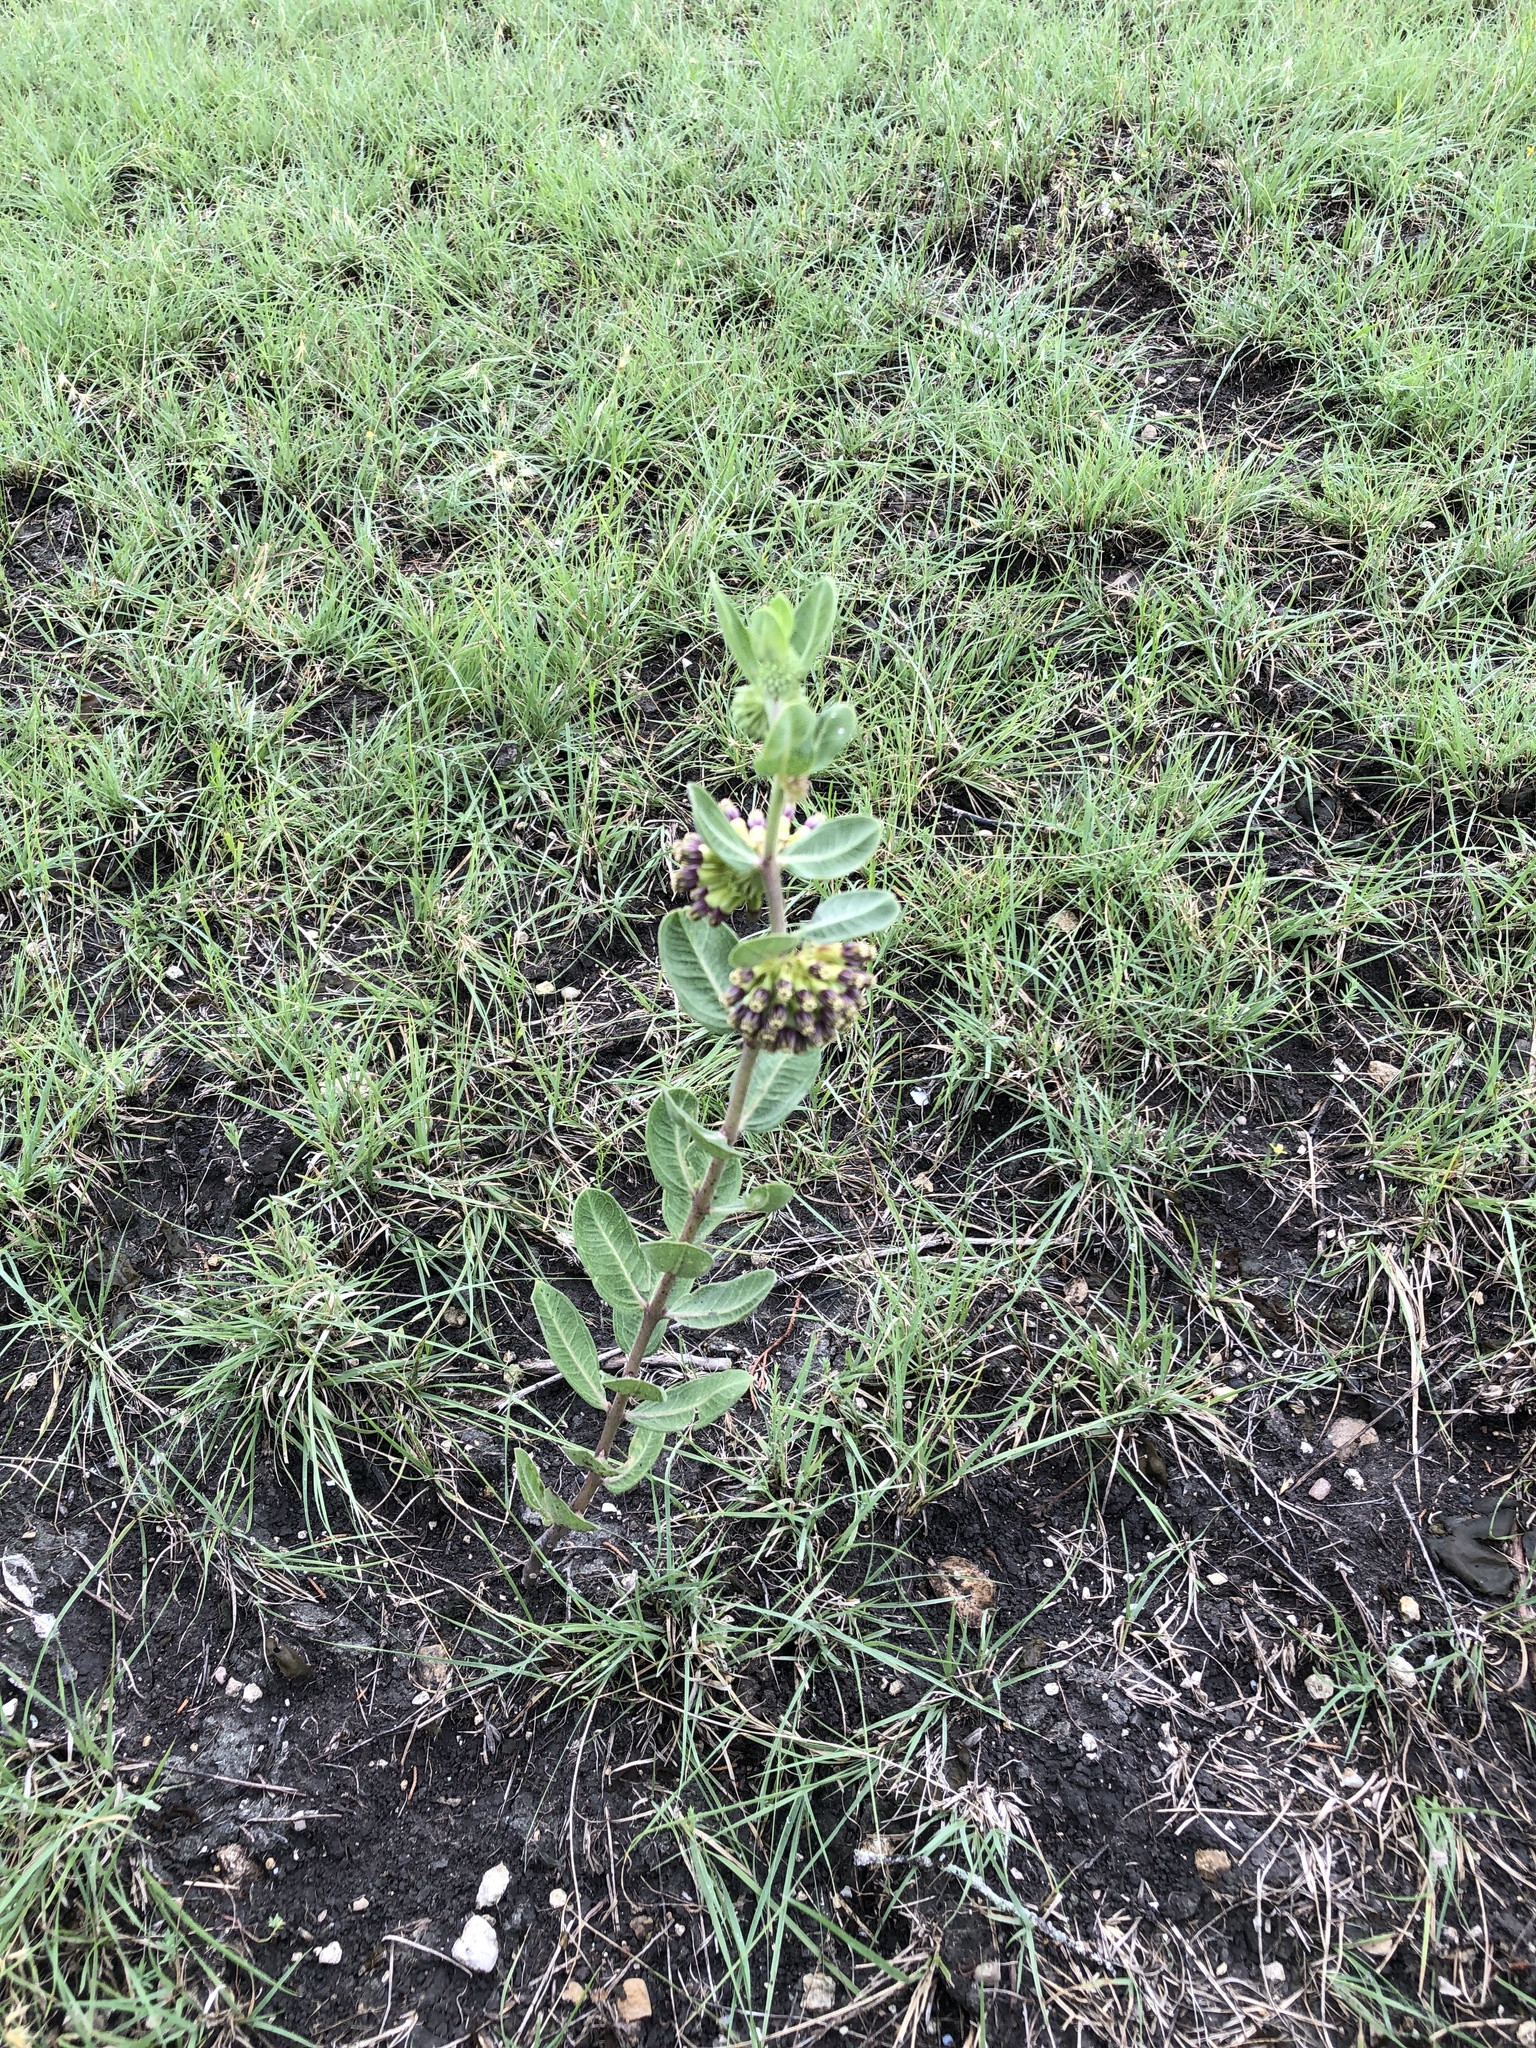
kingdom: Plantae
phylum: Tracheophyta
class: Magnoliopsida
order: Gentianales
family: Apocynaceae
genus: Asclepias
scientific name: Asclepias viridiflora
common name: Green comet milkweed
